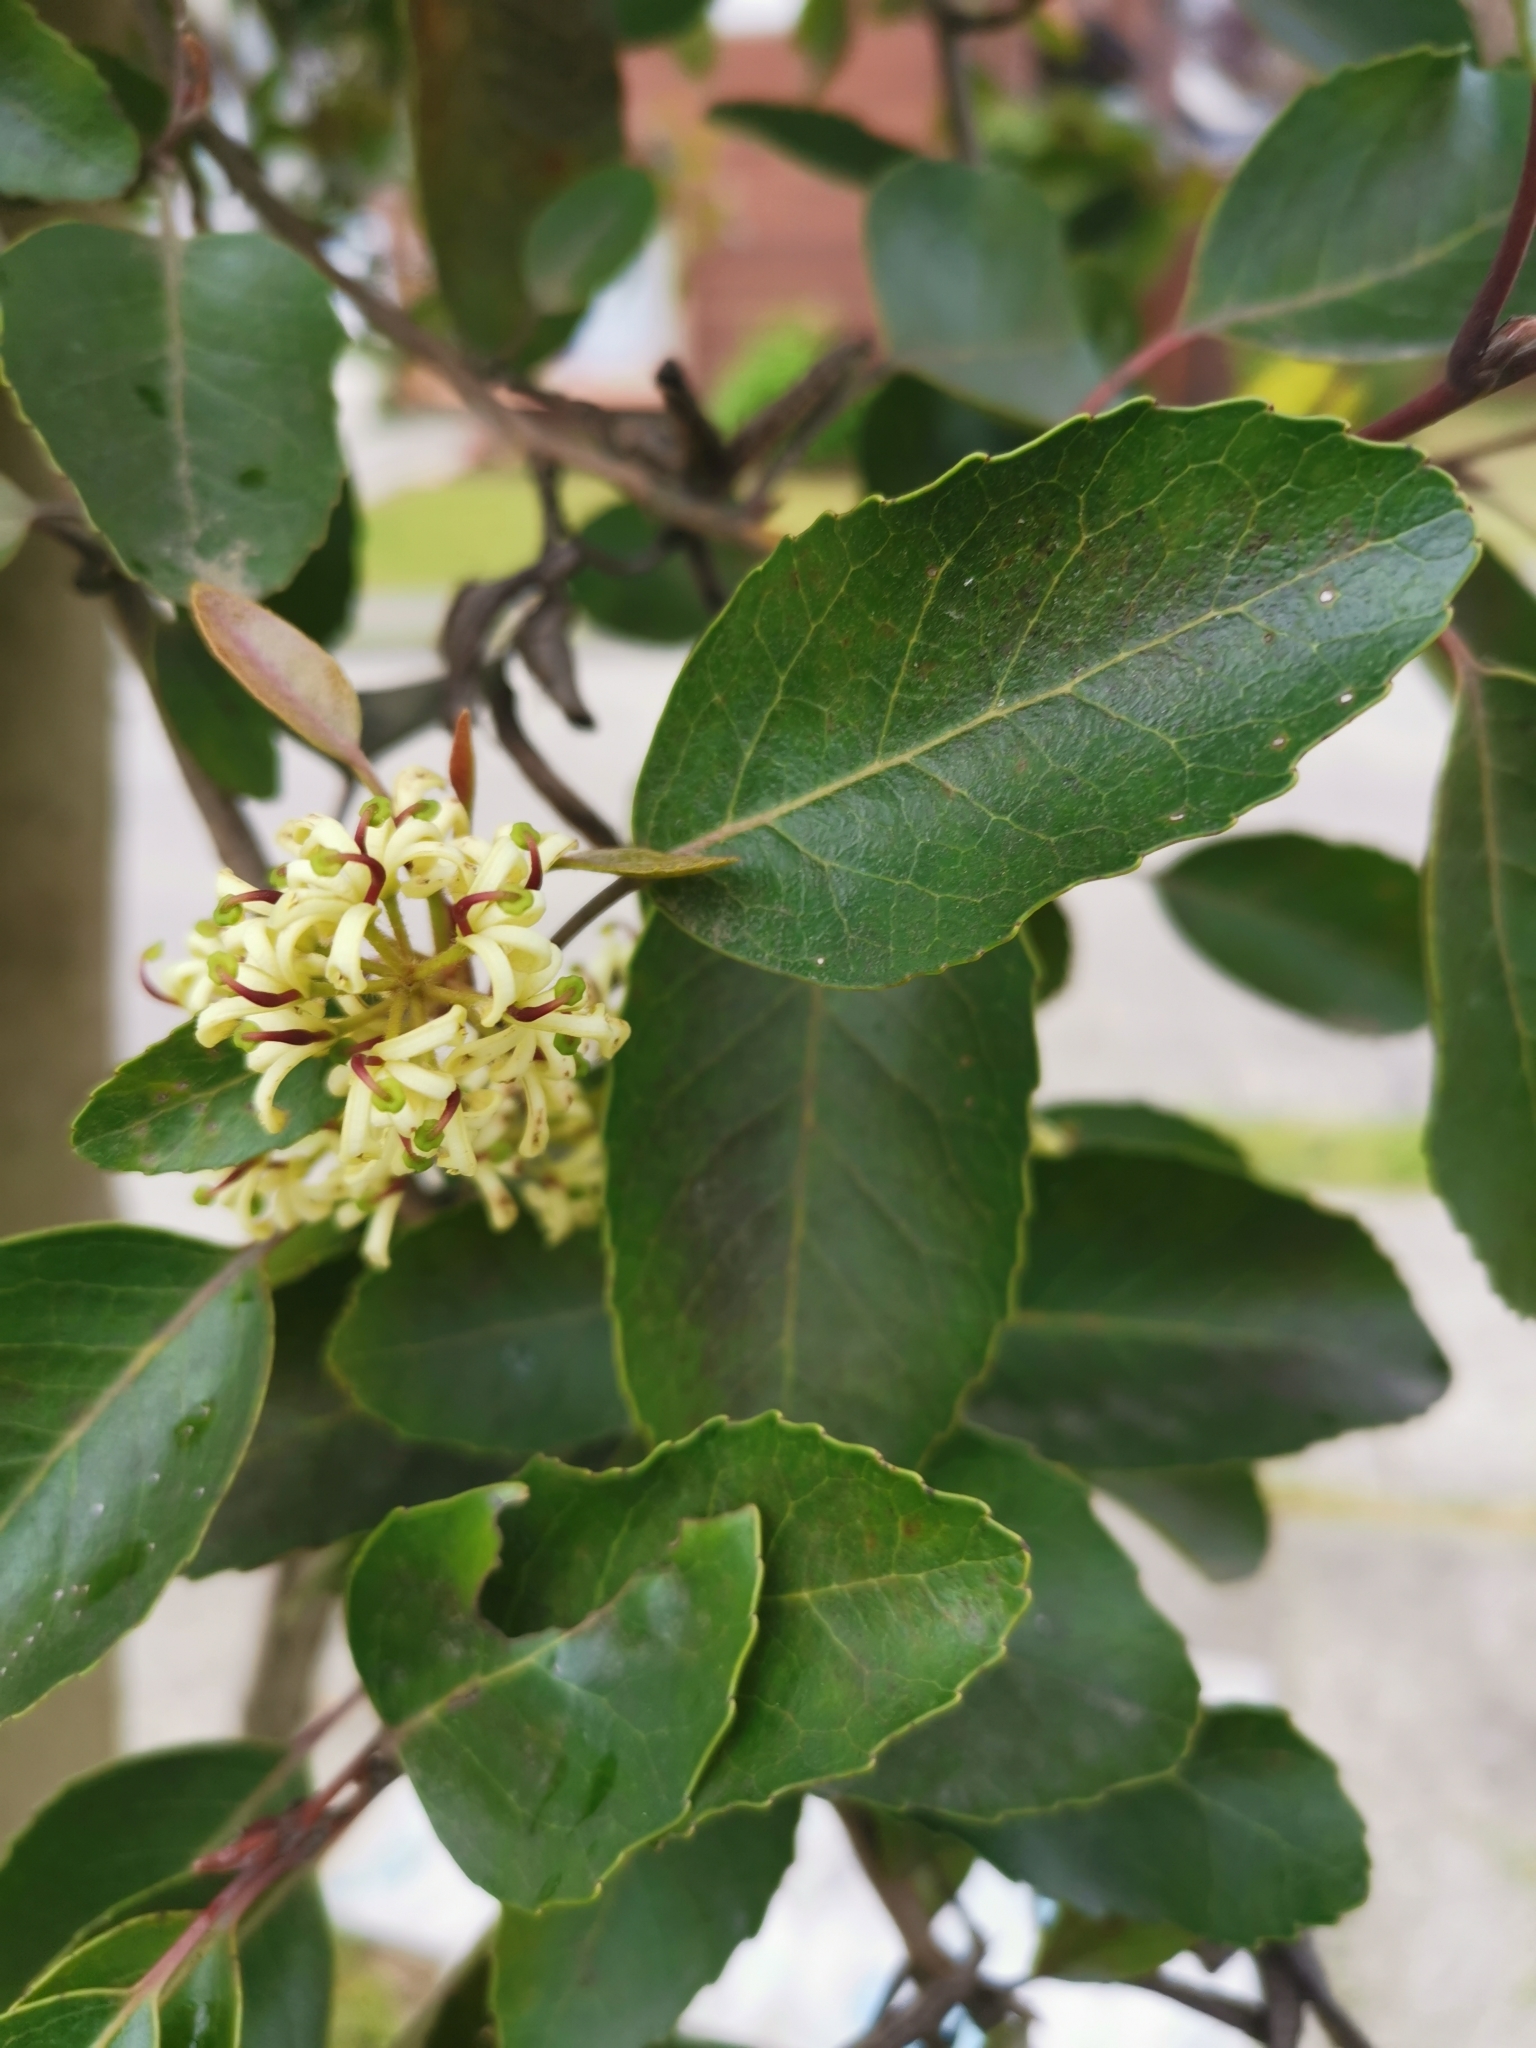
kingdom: Plantae
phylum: Tracheophyta
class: Magnoliopsida
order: Proteales
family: Proteaceae
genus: Lomatia
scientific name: Lomatia hirsuta
